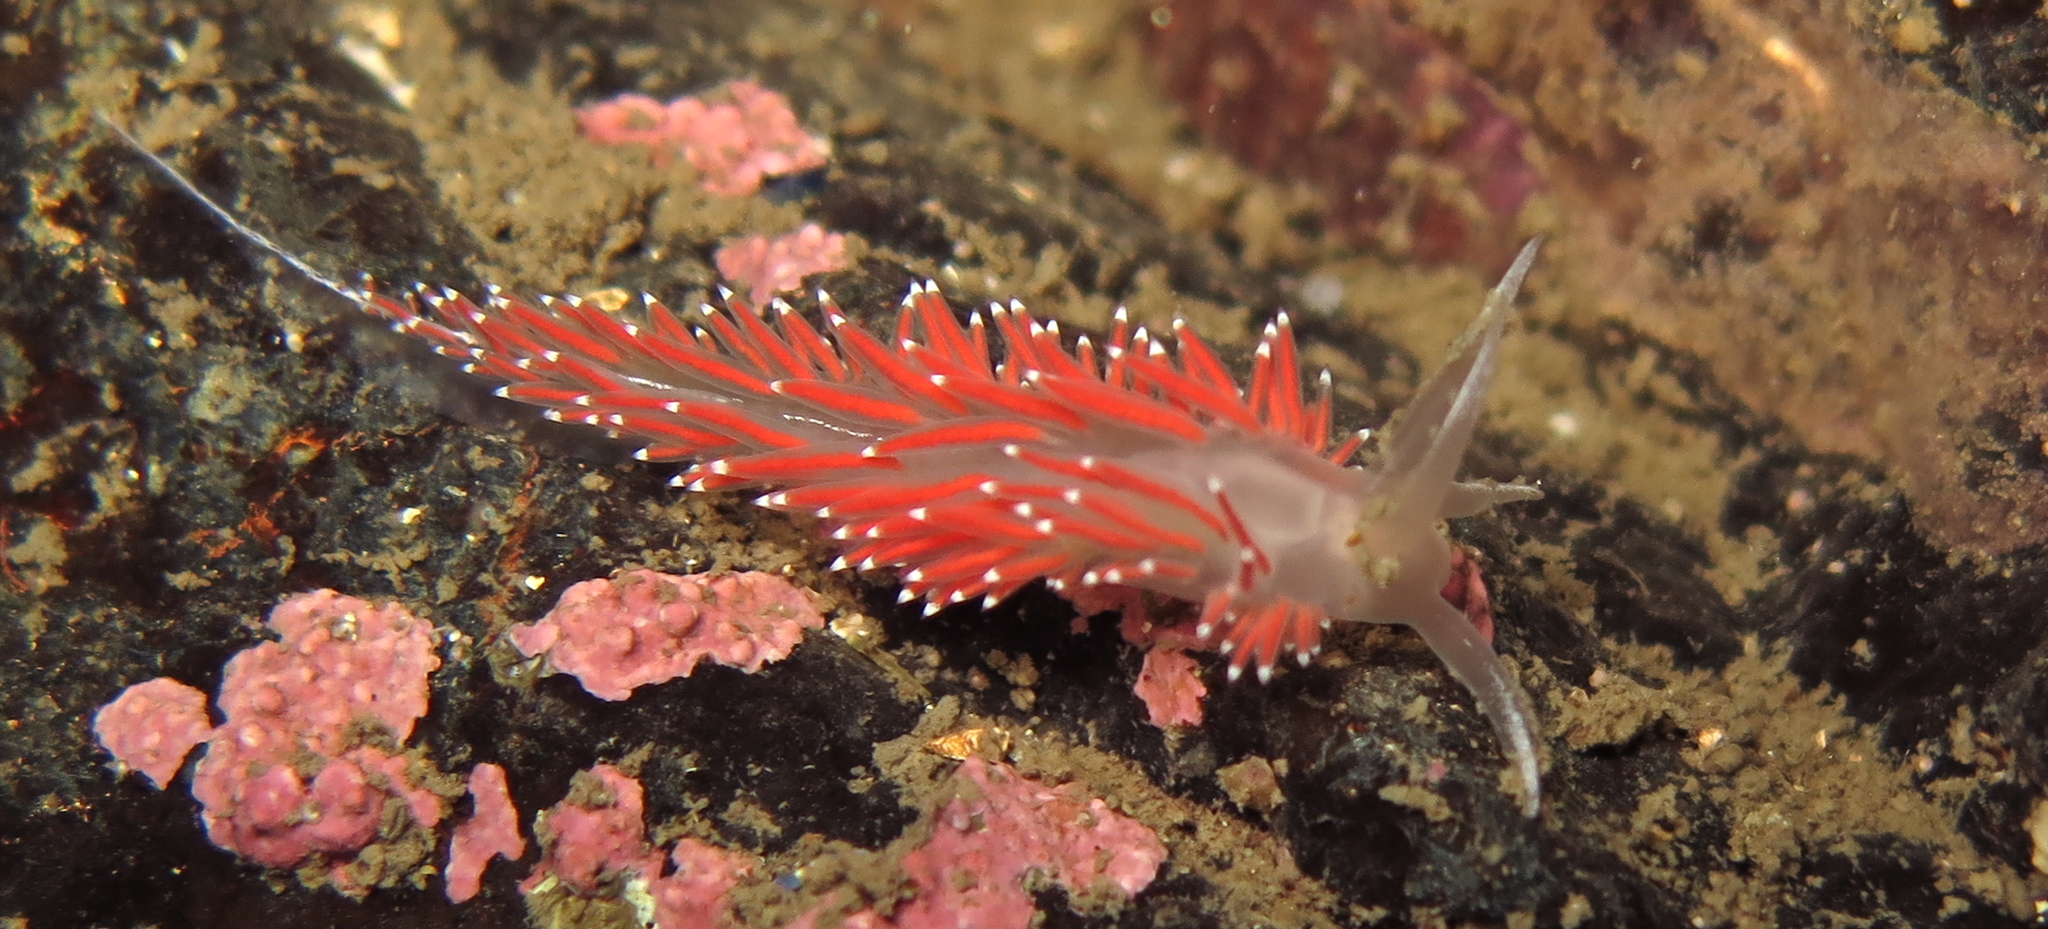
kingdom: Animalia
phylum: Mollusca
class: Gastropoda
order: Nudibranchia
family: Coryphellidae
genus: Coryphella
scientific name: Coryphella verrucosa
